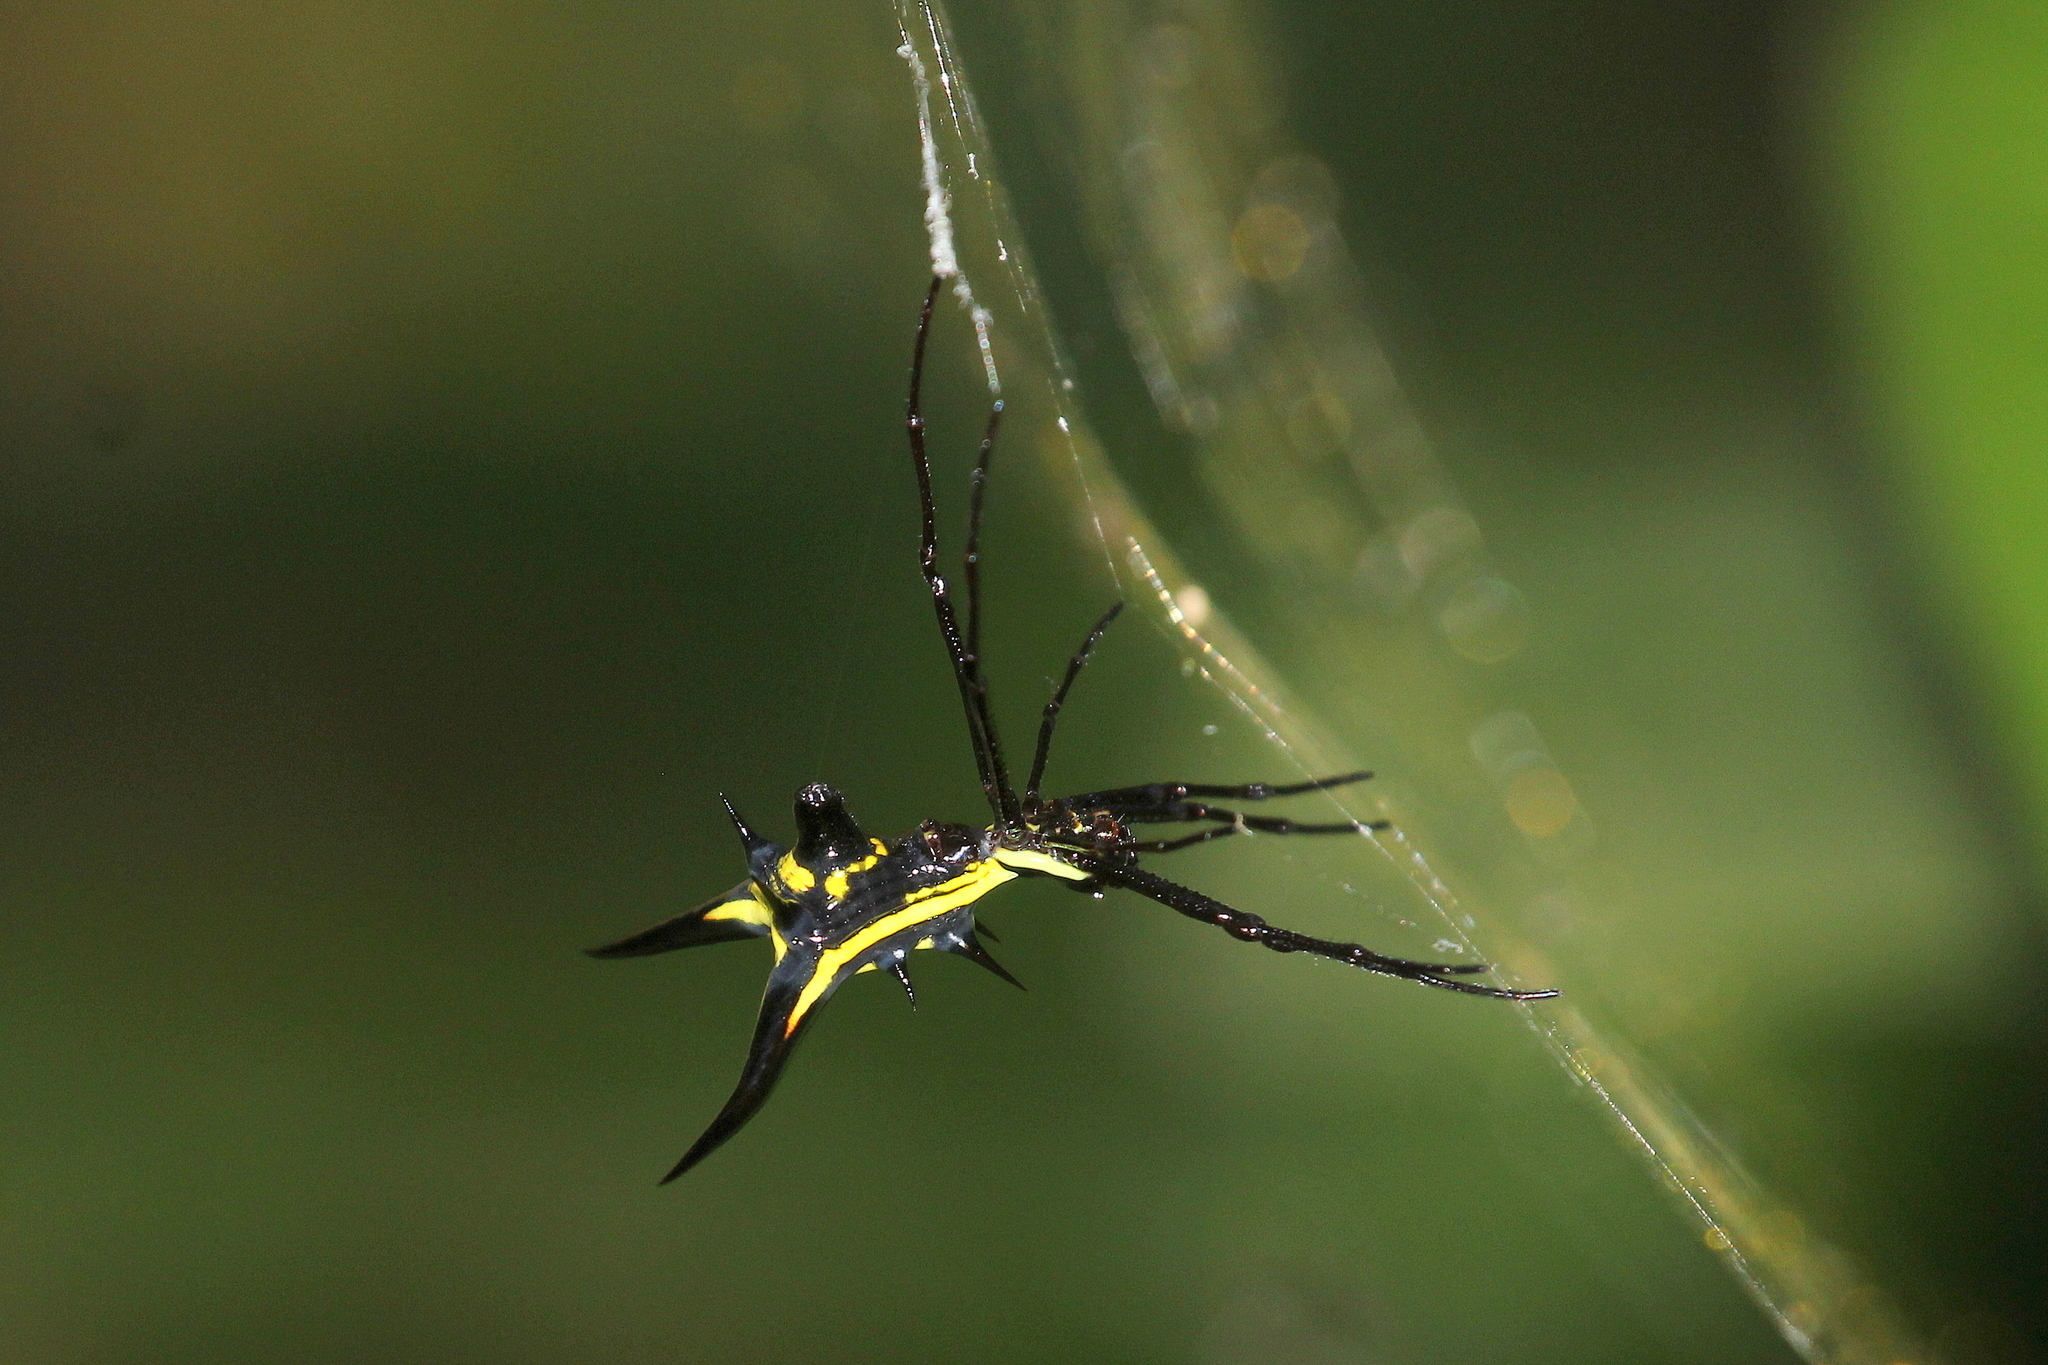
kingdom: Animalia
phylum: Arthropoda
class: Arachnida
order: Araneae
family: Araneidae
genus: Micrathena
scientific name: Micrathena schreibersi
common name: Orb weavers
